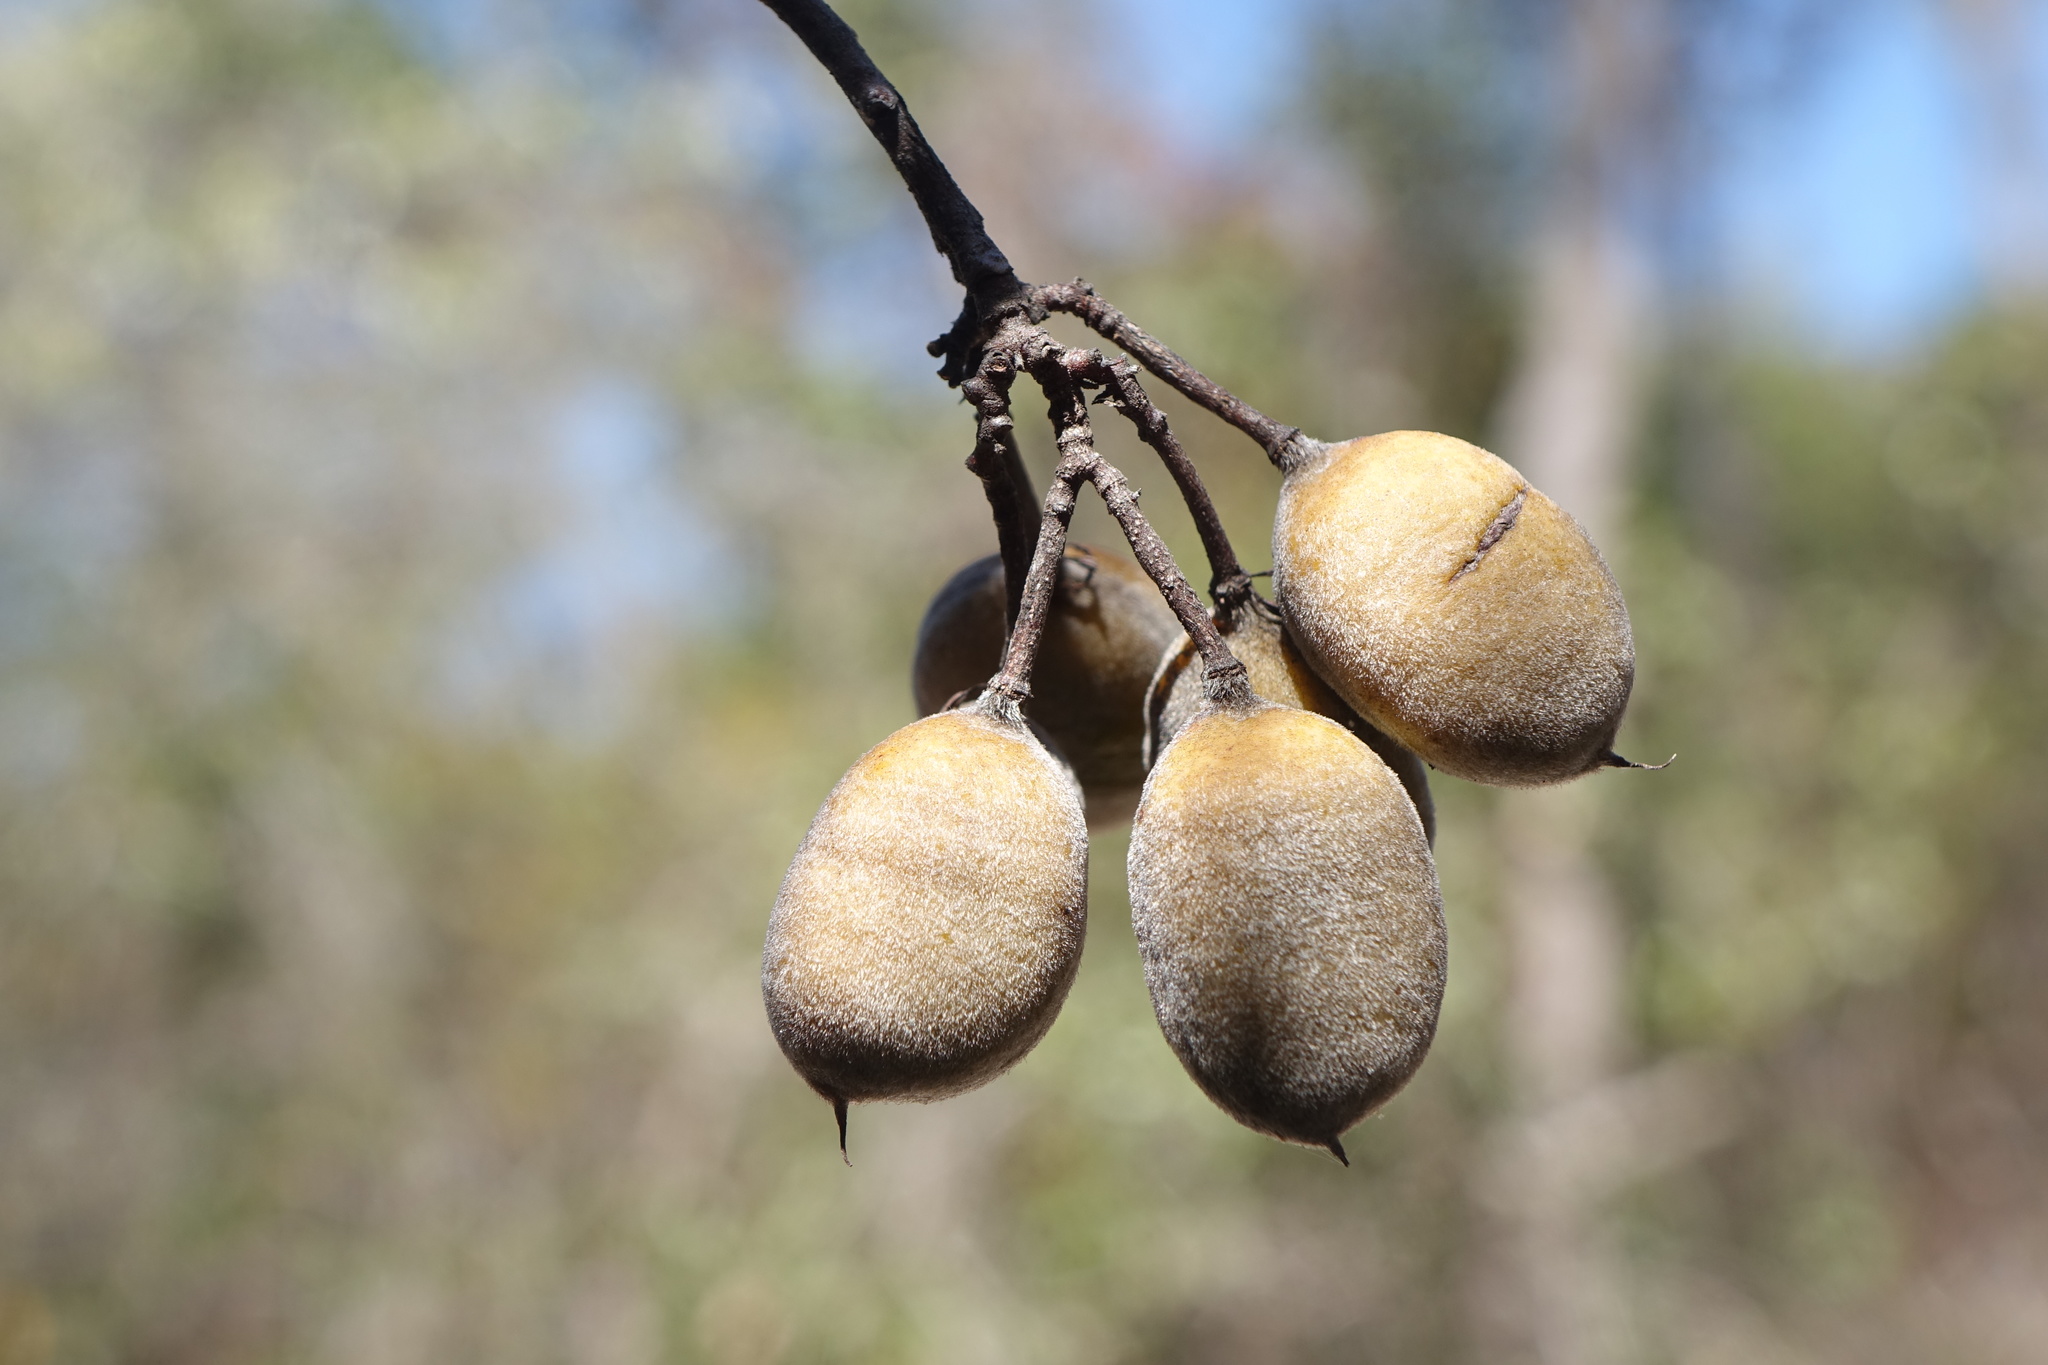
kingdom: Plantae
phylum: Tracheophyta
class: Magnoliopsida
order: Fabales
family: Fabaceae
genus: Baudouinia
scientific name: Baudouinia fluggeiformis
